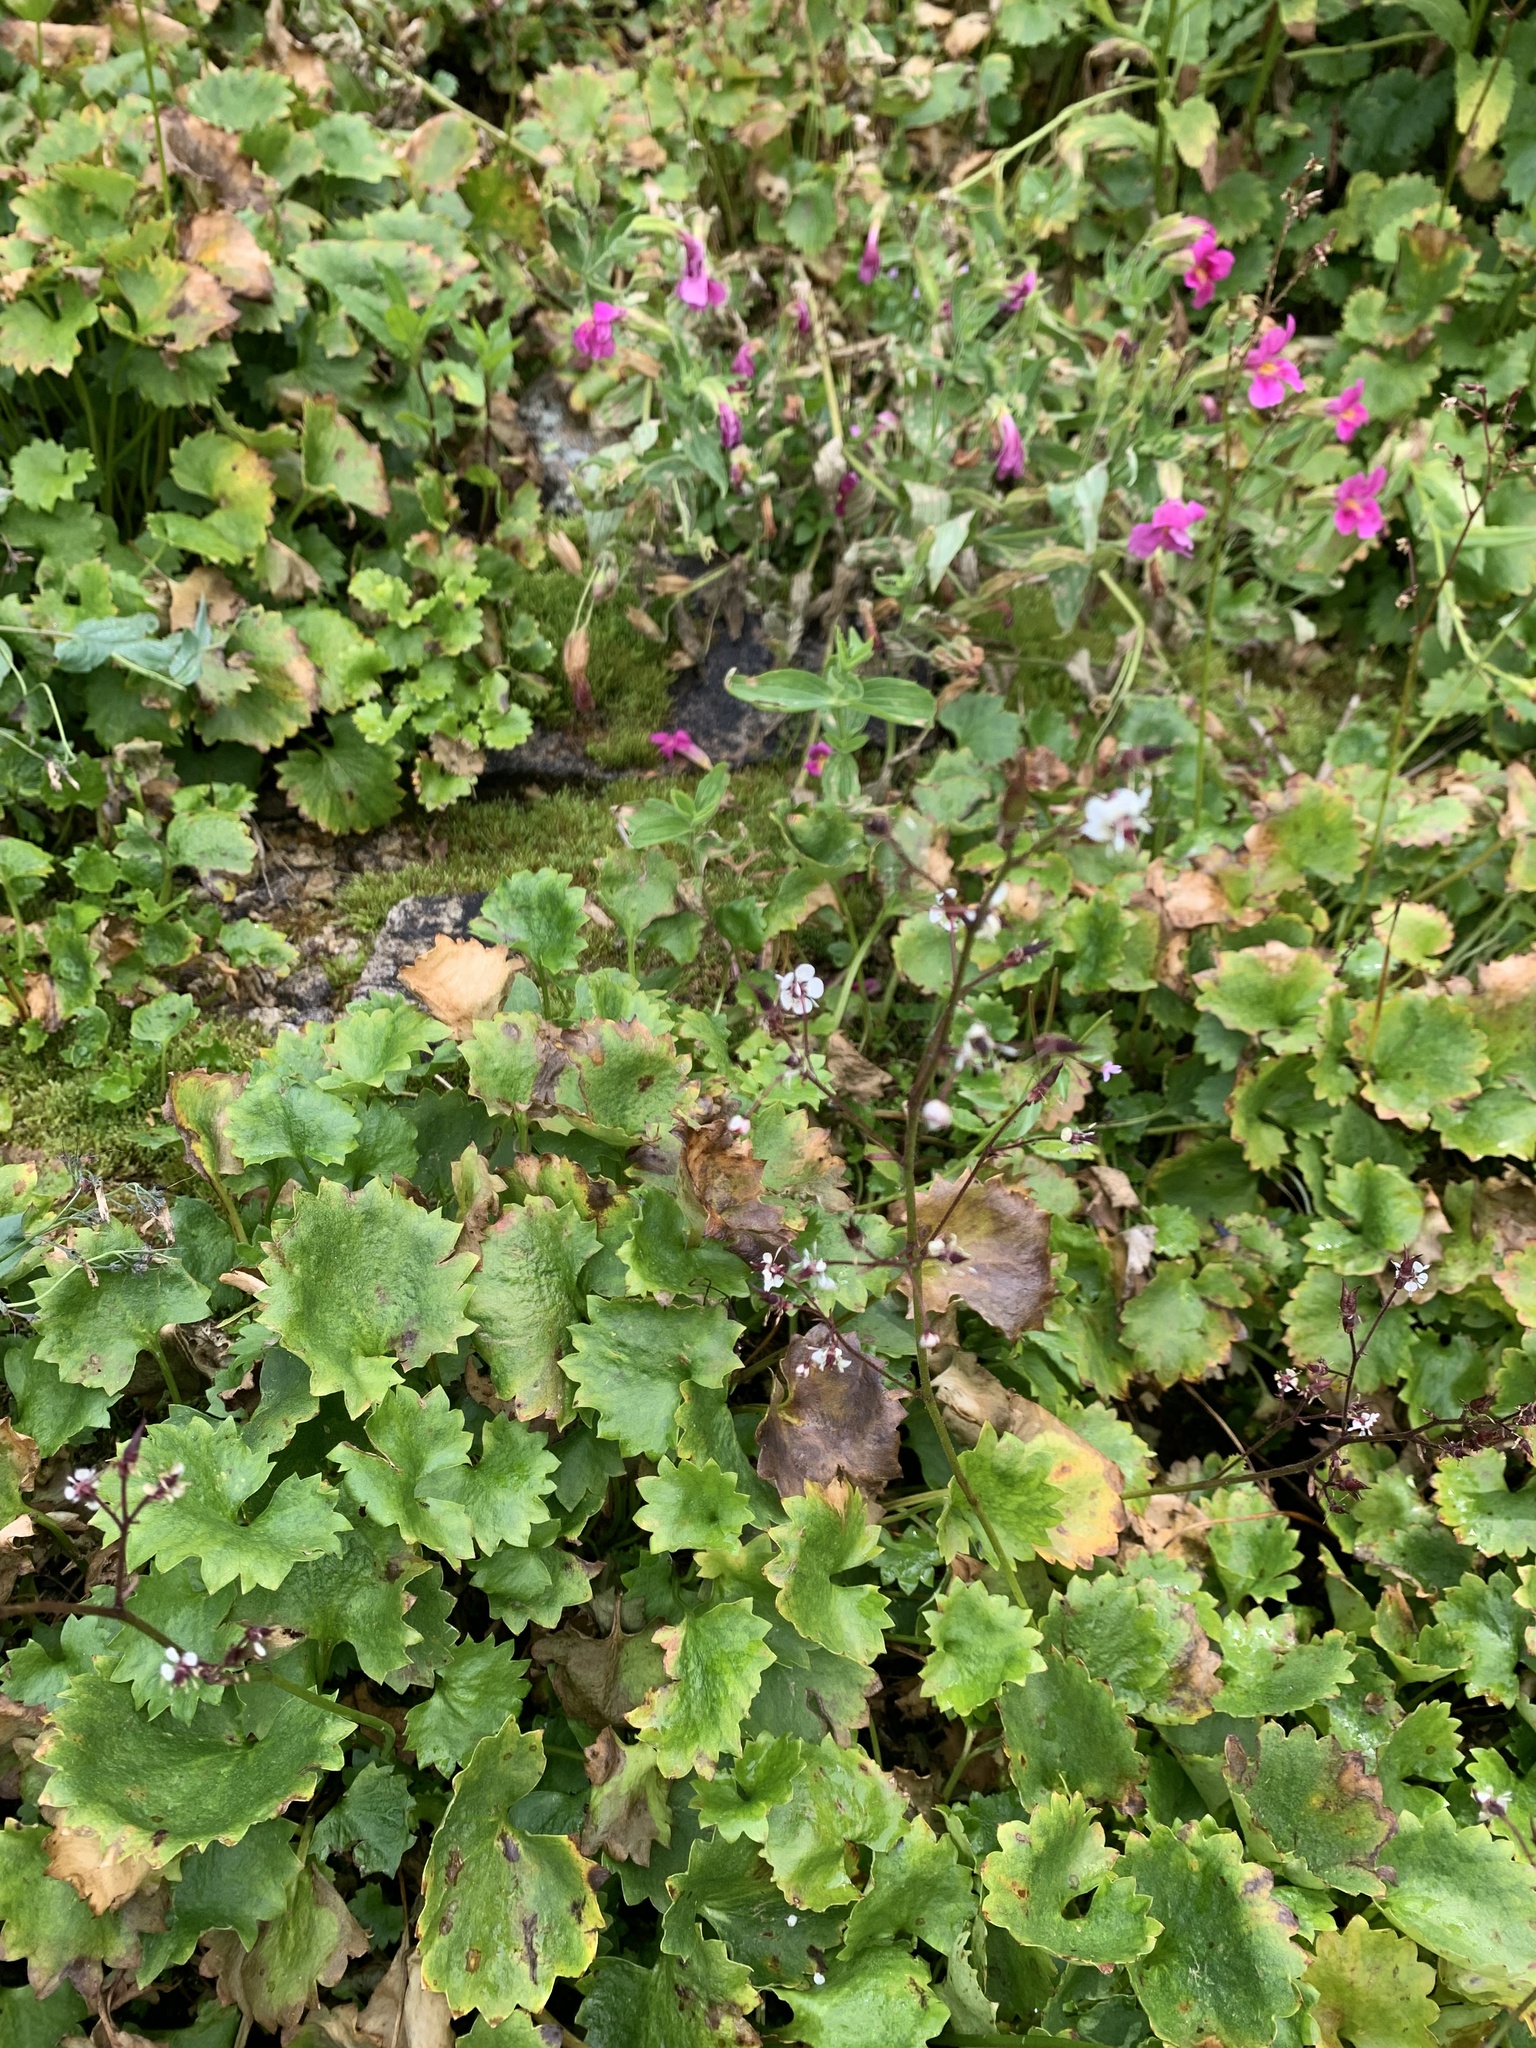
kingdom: Plantae
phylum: Tracheophyta
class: Magnoliopsida
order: Saxifragales
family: Saxifragaceae
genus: Micranthes
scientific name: Micranthes odontoloma
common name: Brook saxifrage
